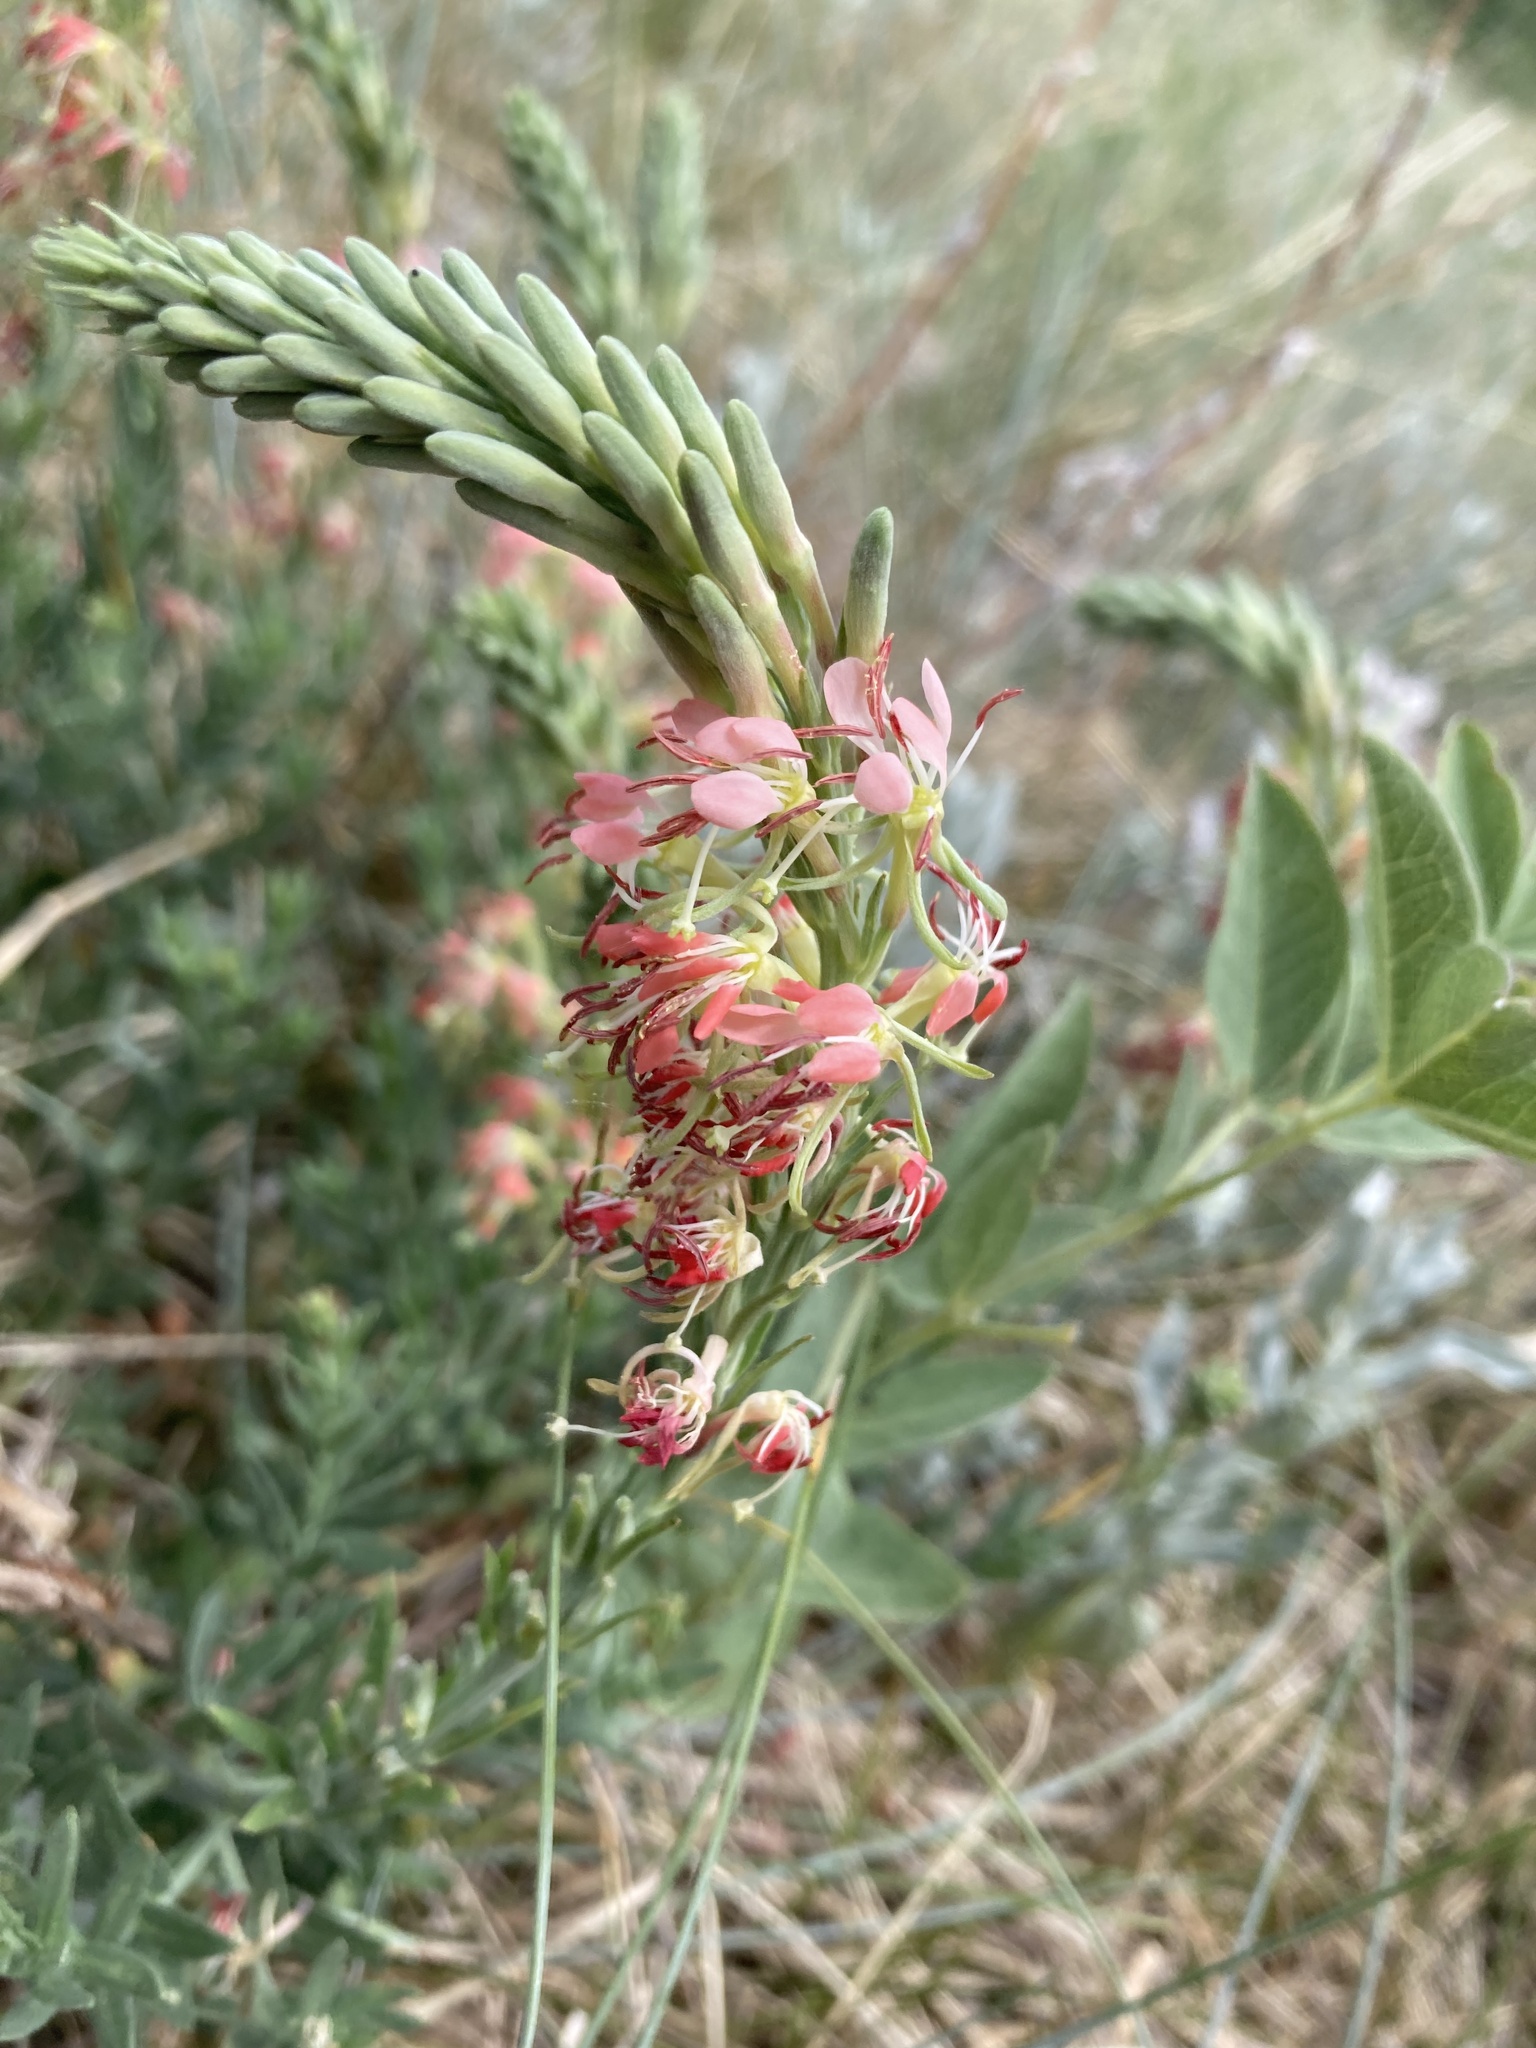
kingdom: Plantae
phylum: Tracheophyta
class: Magnoliopsida
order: Myrtales
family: Onagraceae
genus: Oenothera
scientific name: Oenothera suffrutescens
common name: Scarlet beeblossom
